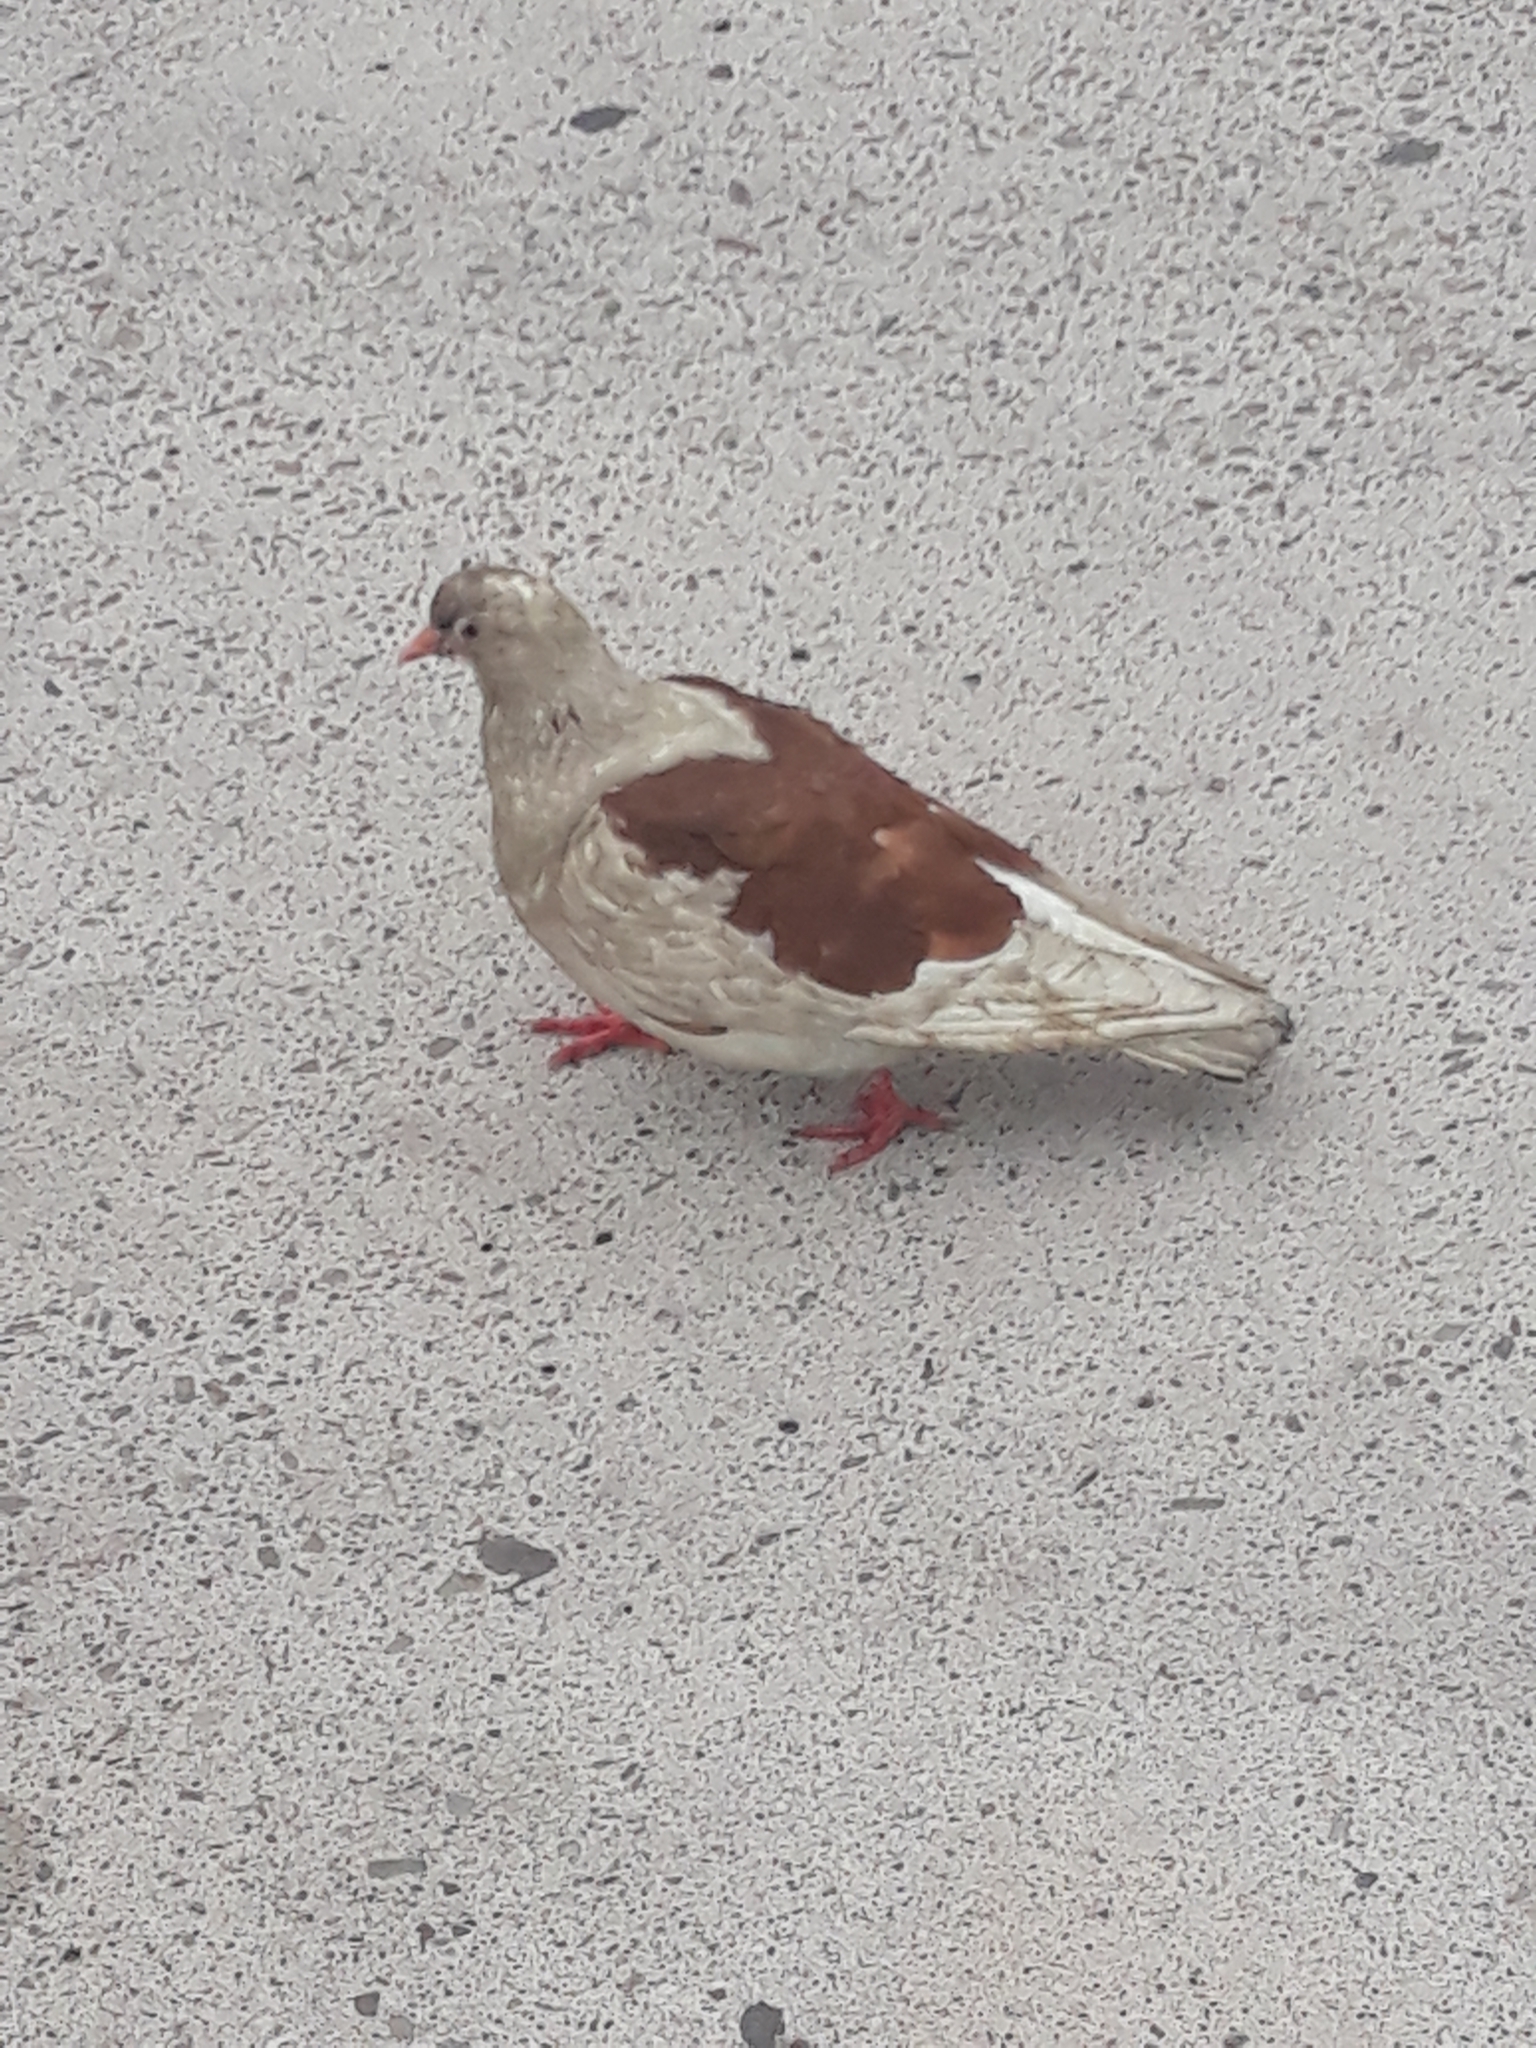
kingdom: Animalia
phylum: Chordata
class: Aves
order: Columbiformes
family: Columbidae
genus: Columba
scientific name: Columba livia
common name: Rock pigeon
